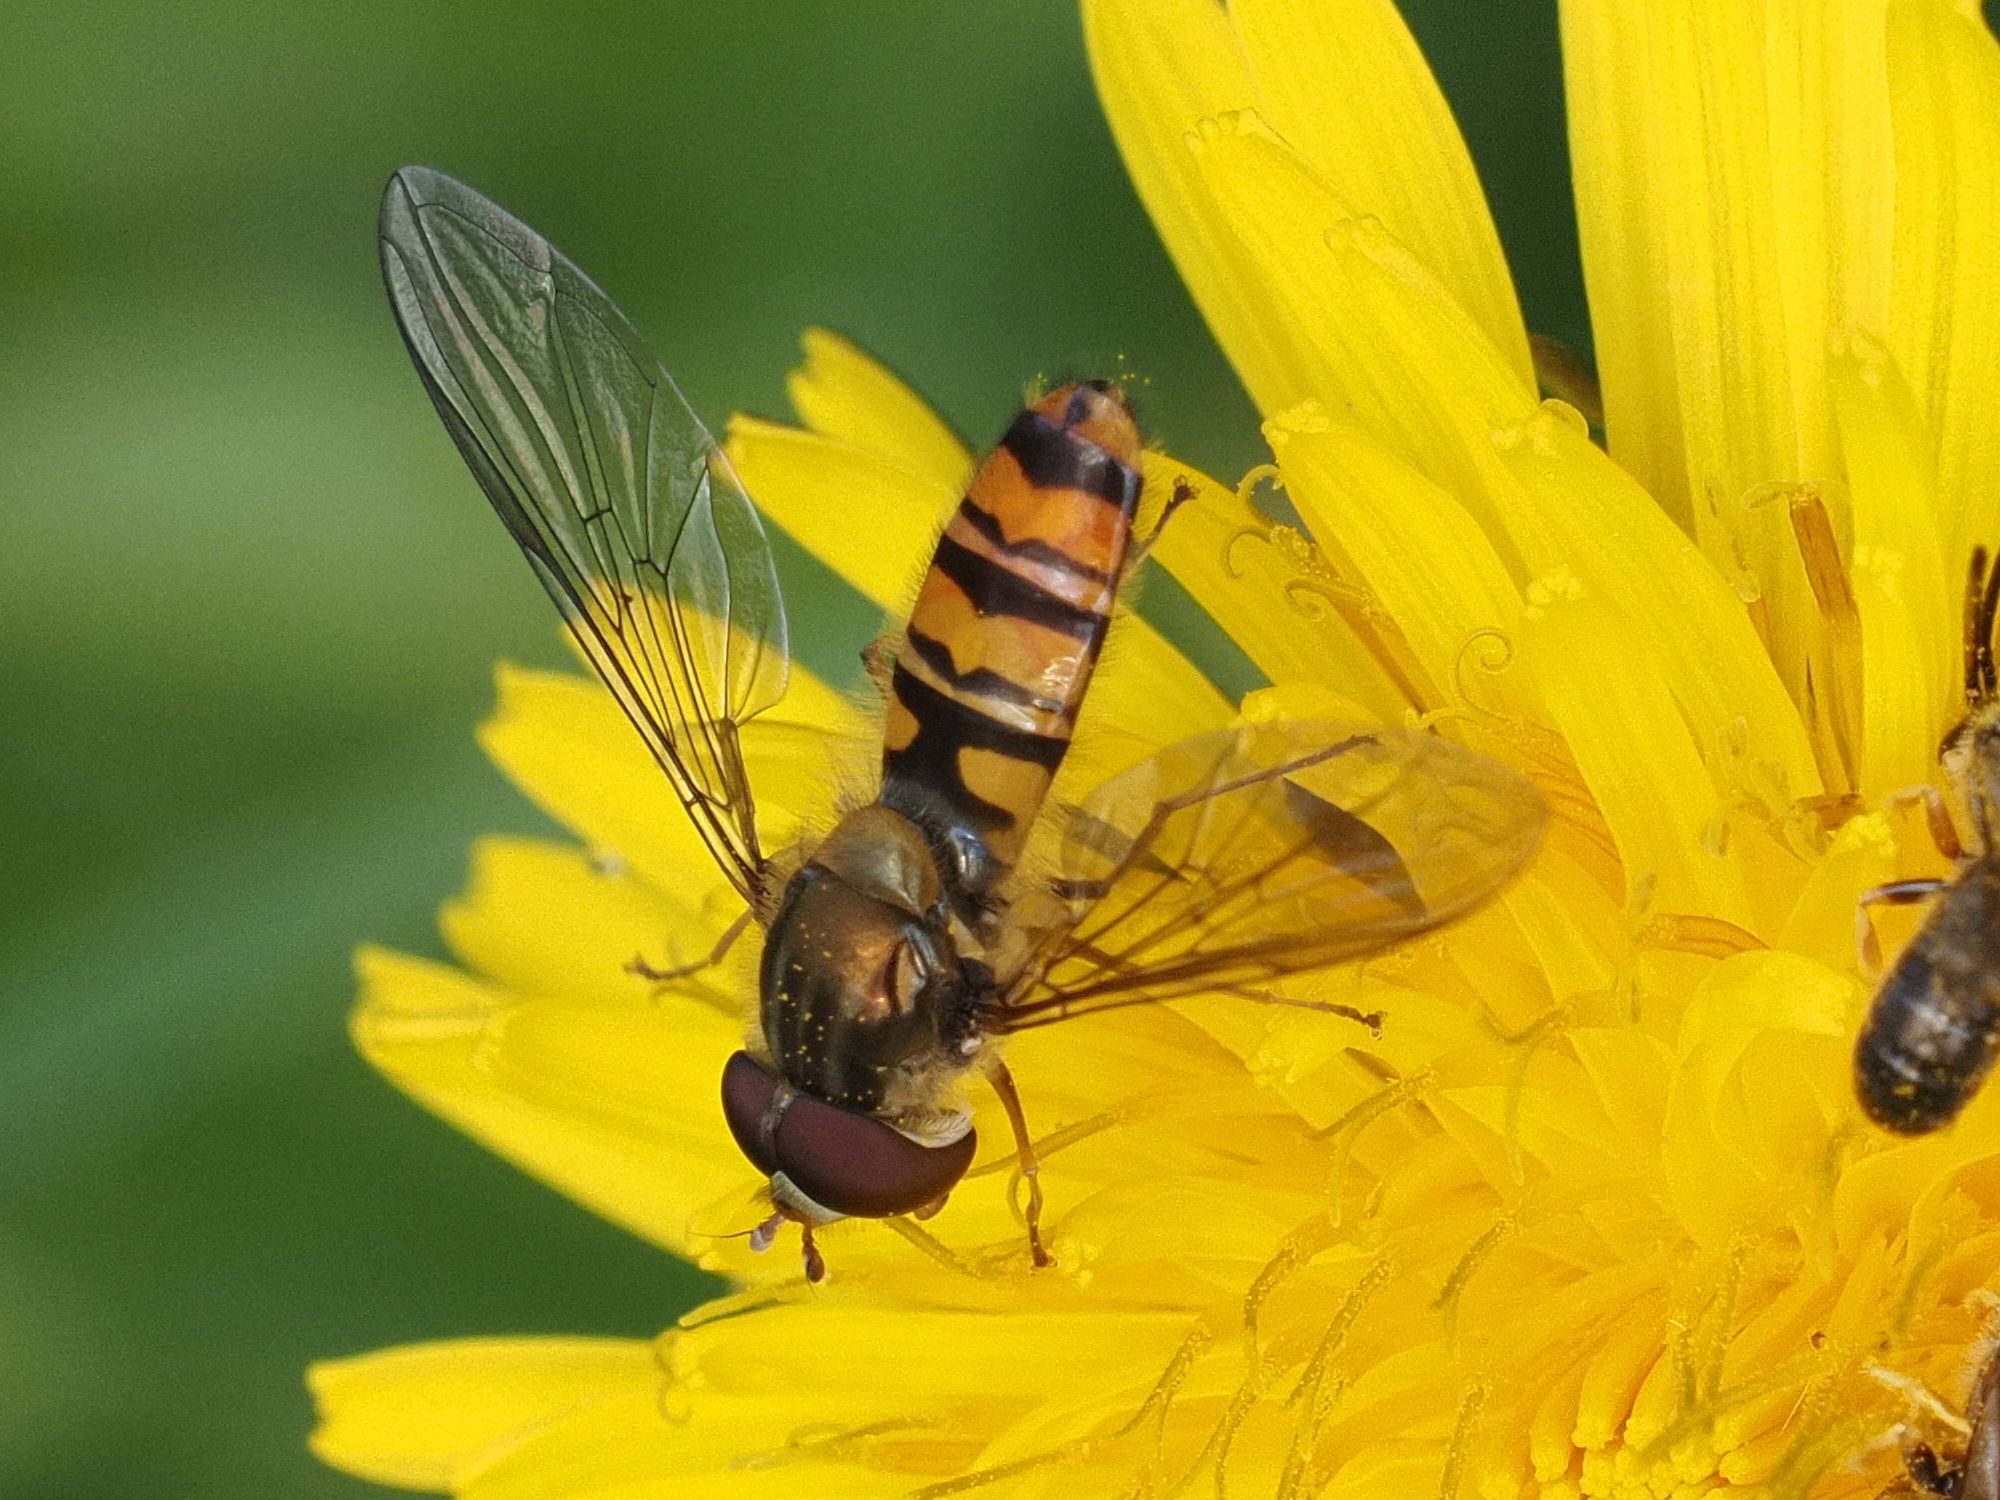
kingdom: Animalia
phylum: Arthropoda
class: Insecta
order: Diptera
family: Syrphidae
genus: Episyrphus
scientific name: Episyrphus balteatus
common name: Marmalade hoverfly
